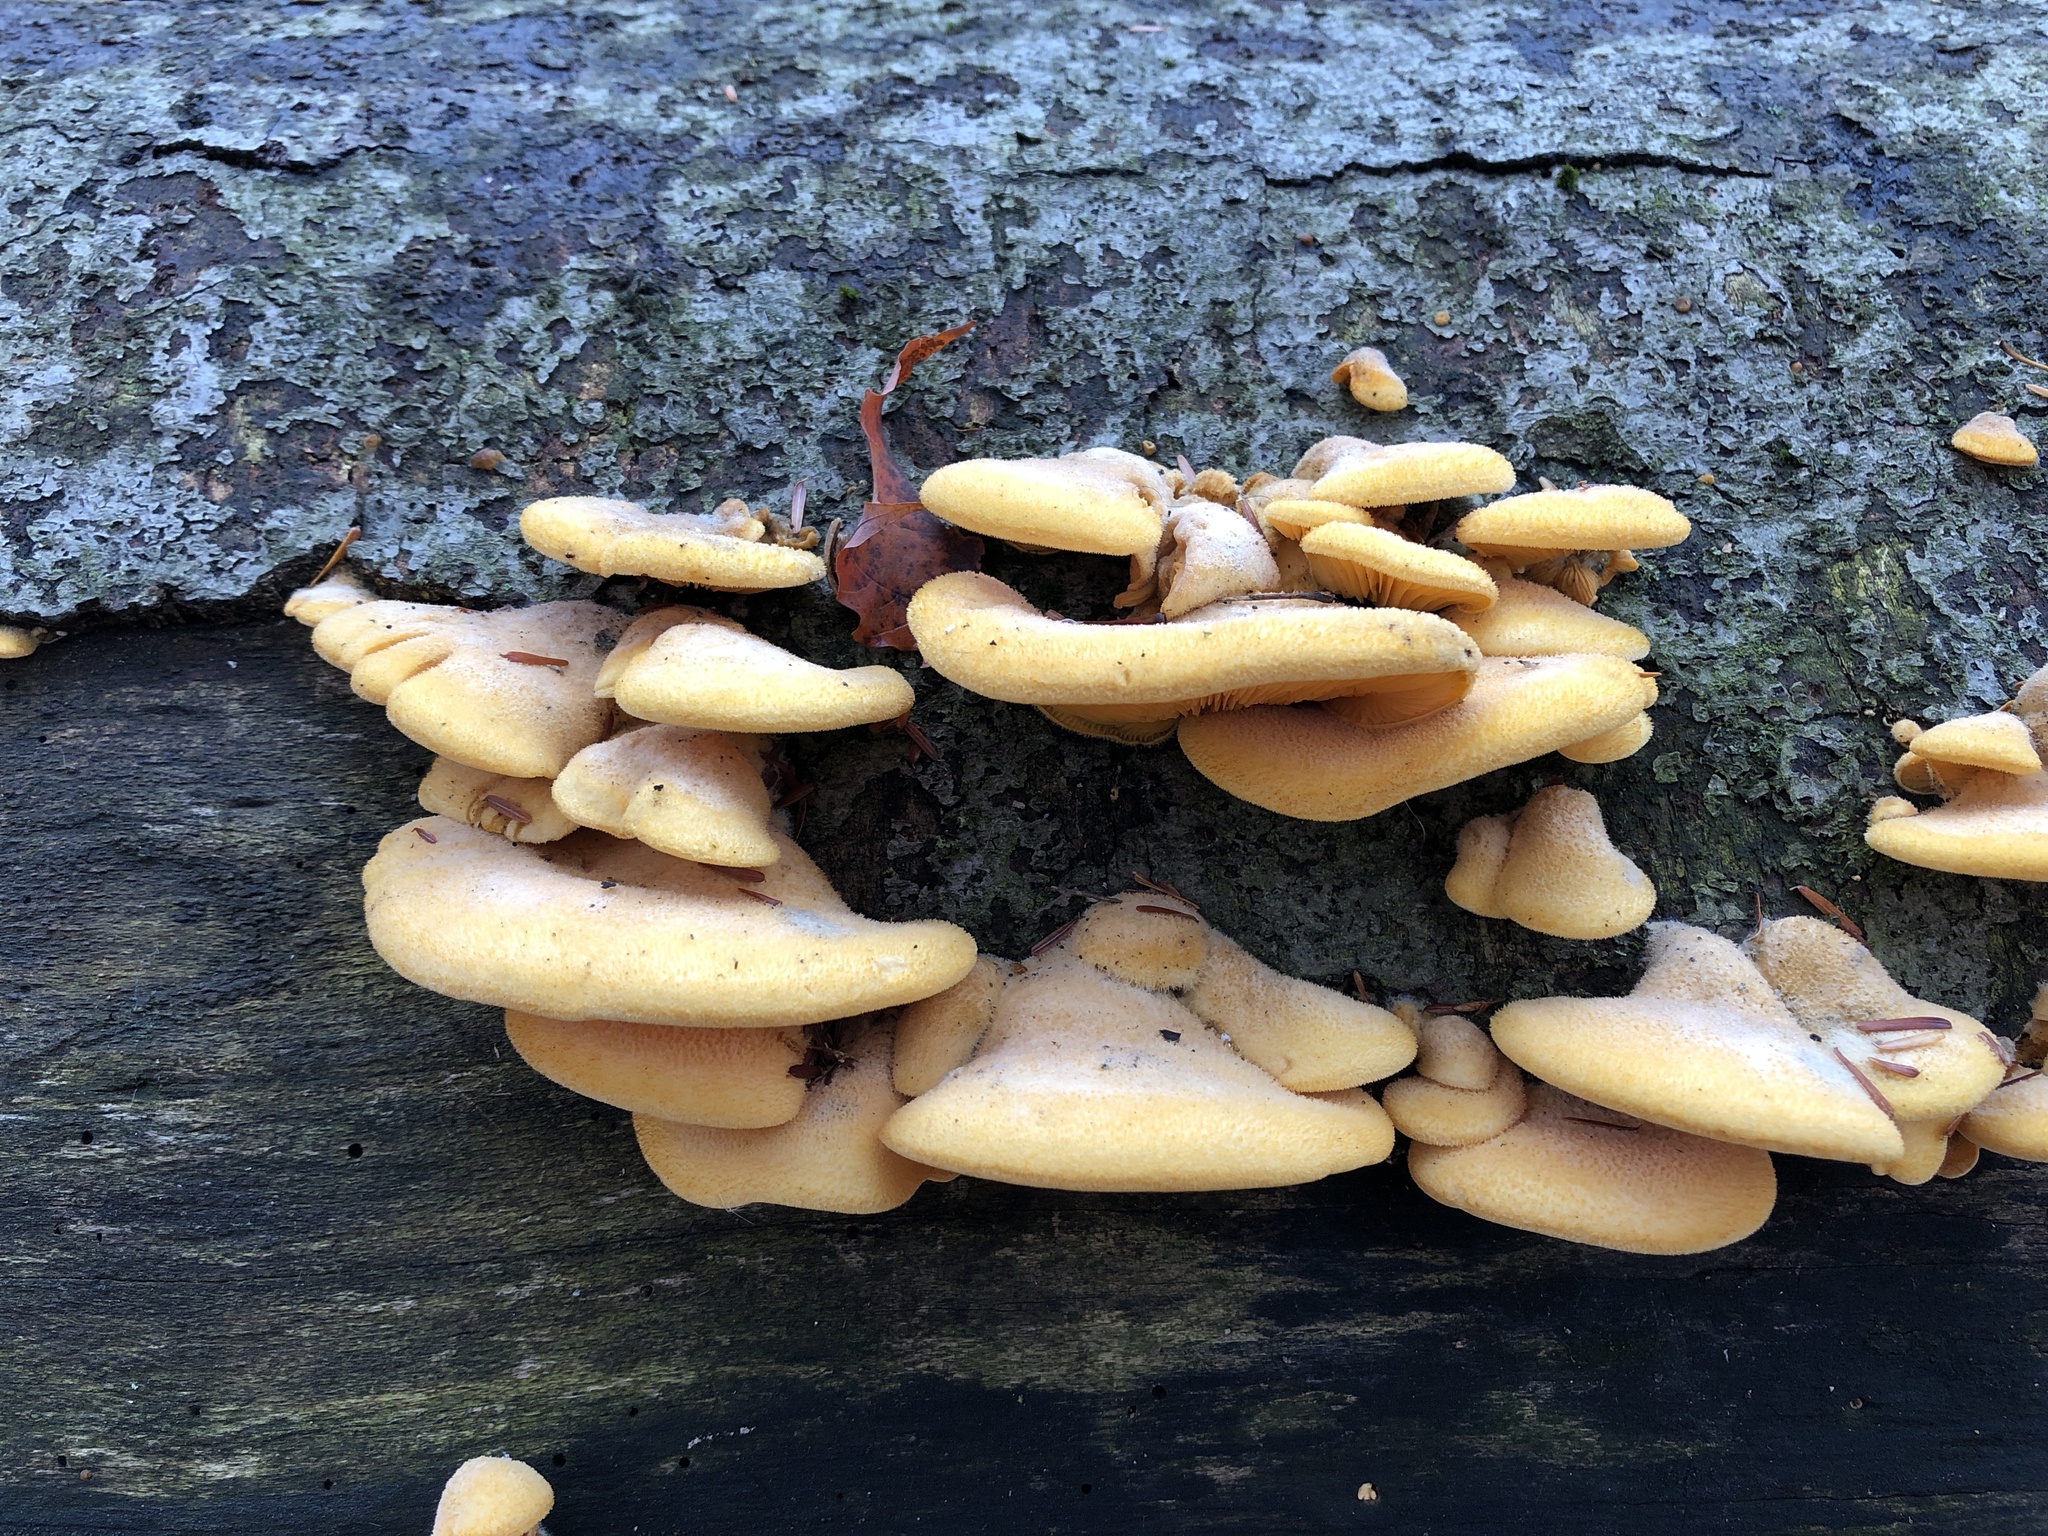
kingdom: Fungi
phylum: Basidiomycota
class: Agaricomycetes
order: Agaricales
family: Phyllotopsidaceae
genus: Phyllotopsis
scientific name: Phyllotopsis nidulans
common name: Orange mock oyster
